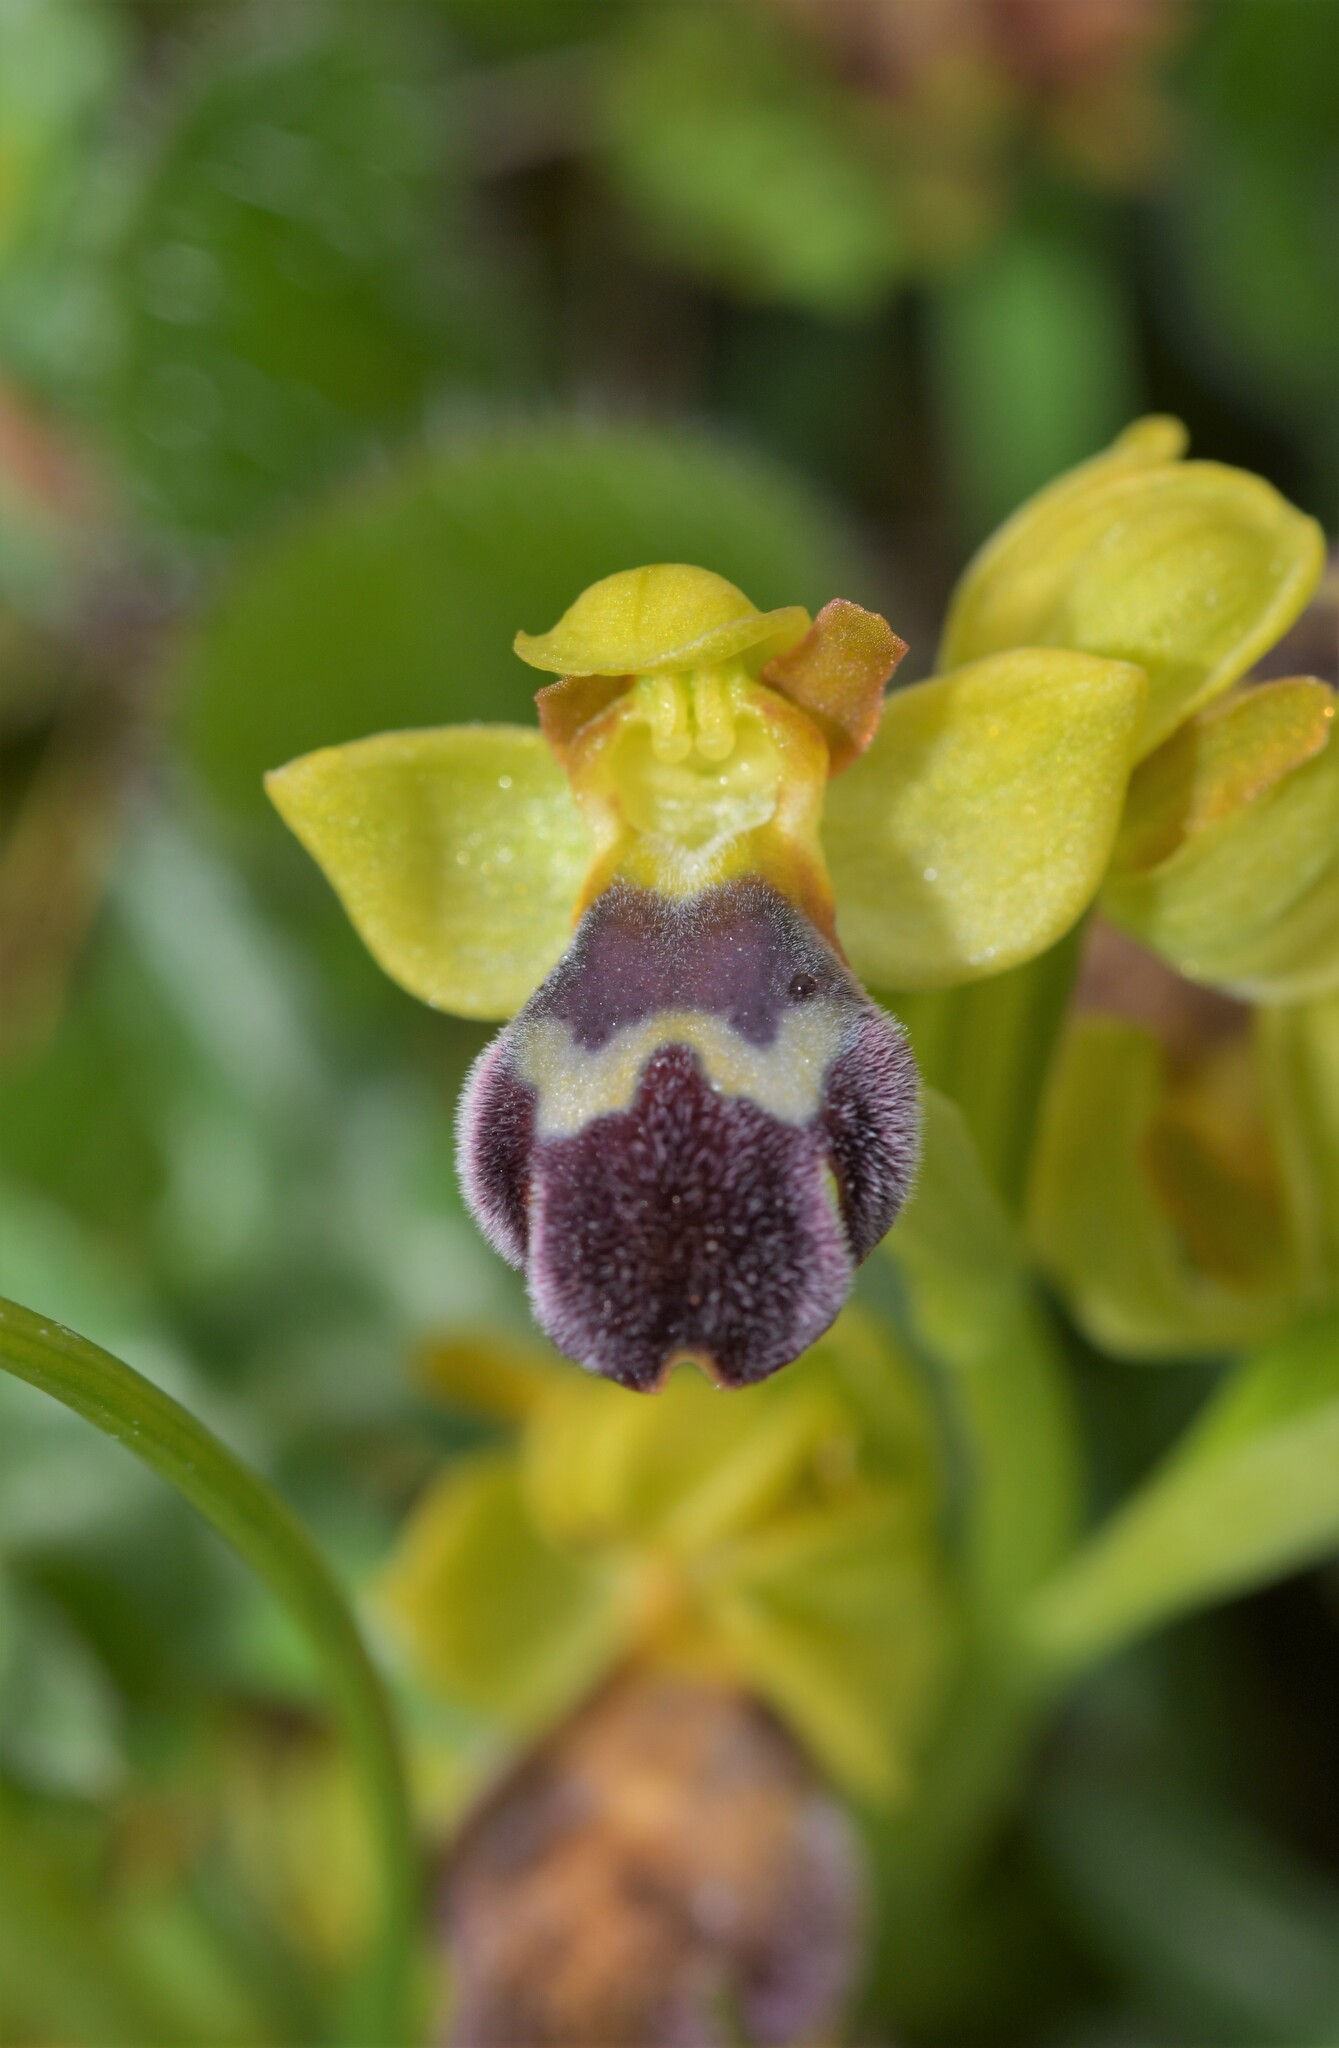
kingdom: Plantae
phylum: Tracheophyta
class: Liliopsida
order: Asparagales
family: Orchidaceae
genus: Ophrys
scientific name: Ophrys omegaifera
